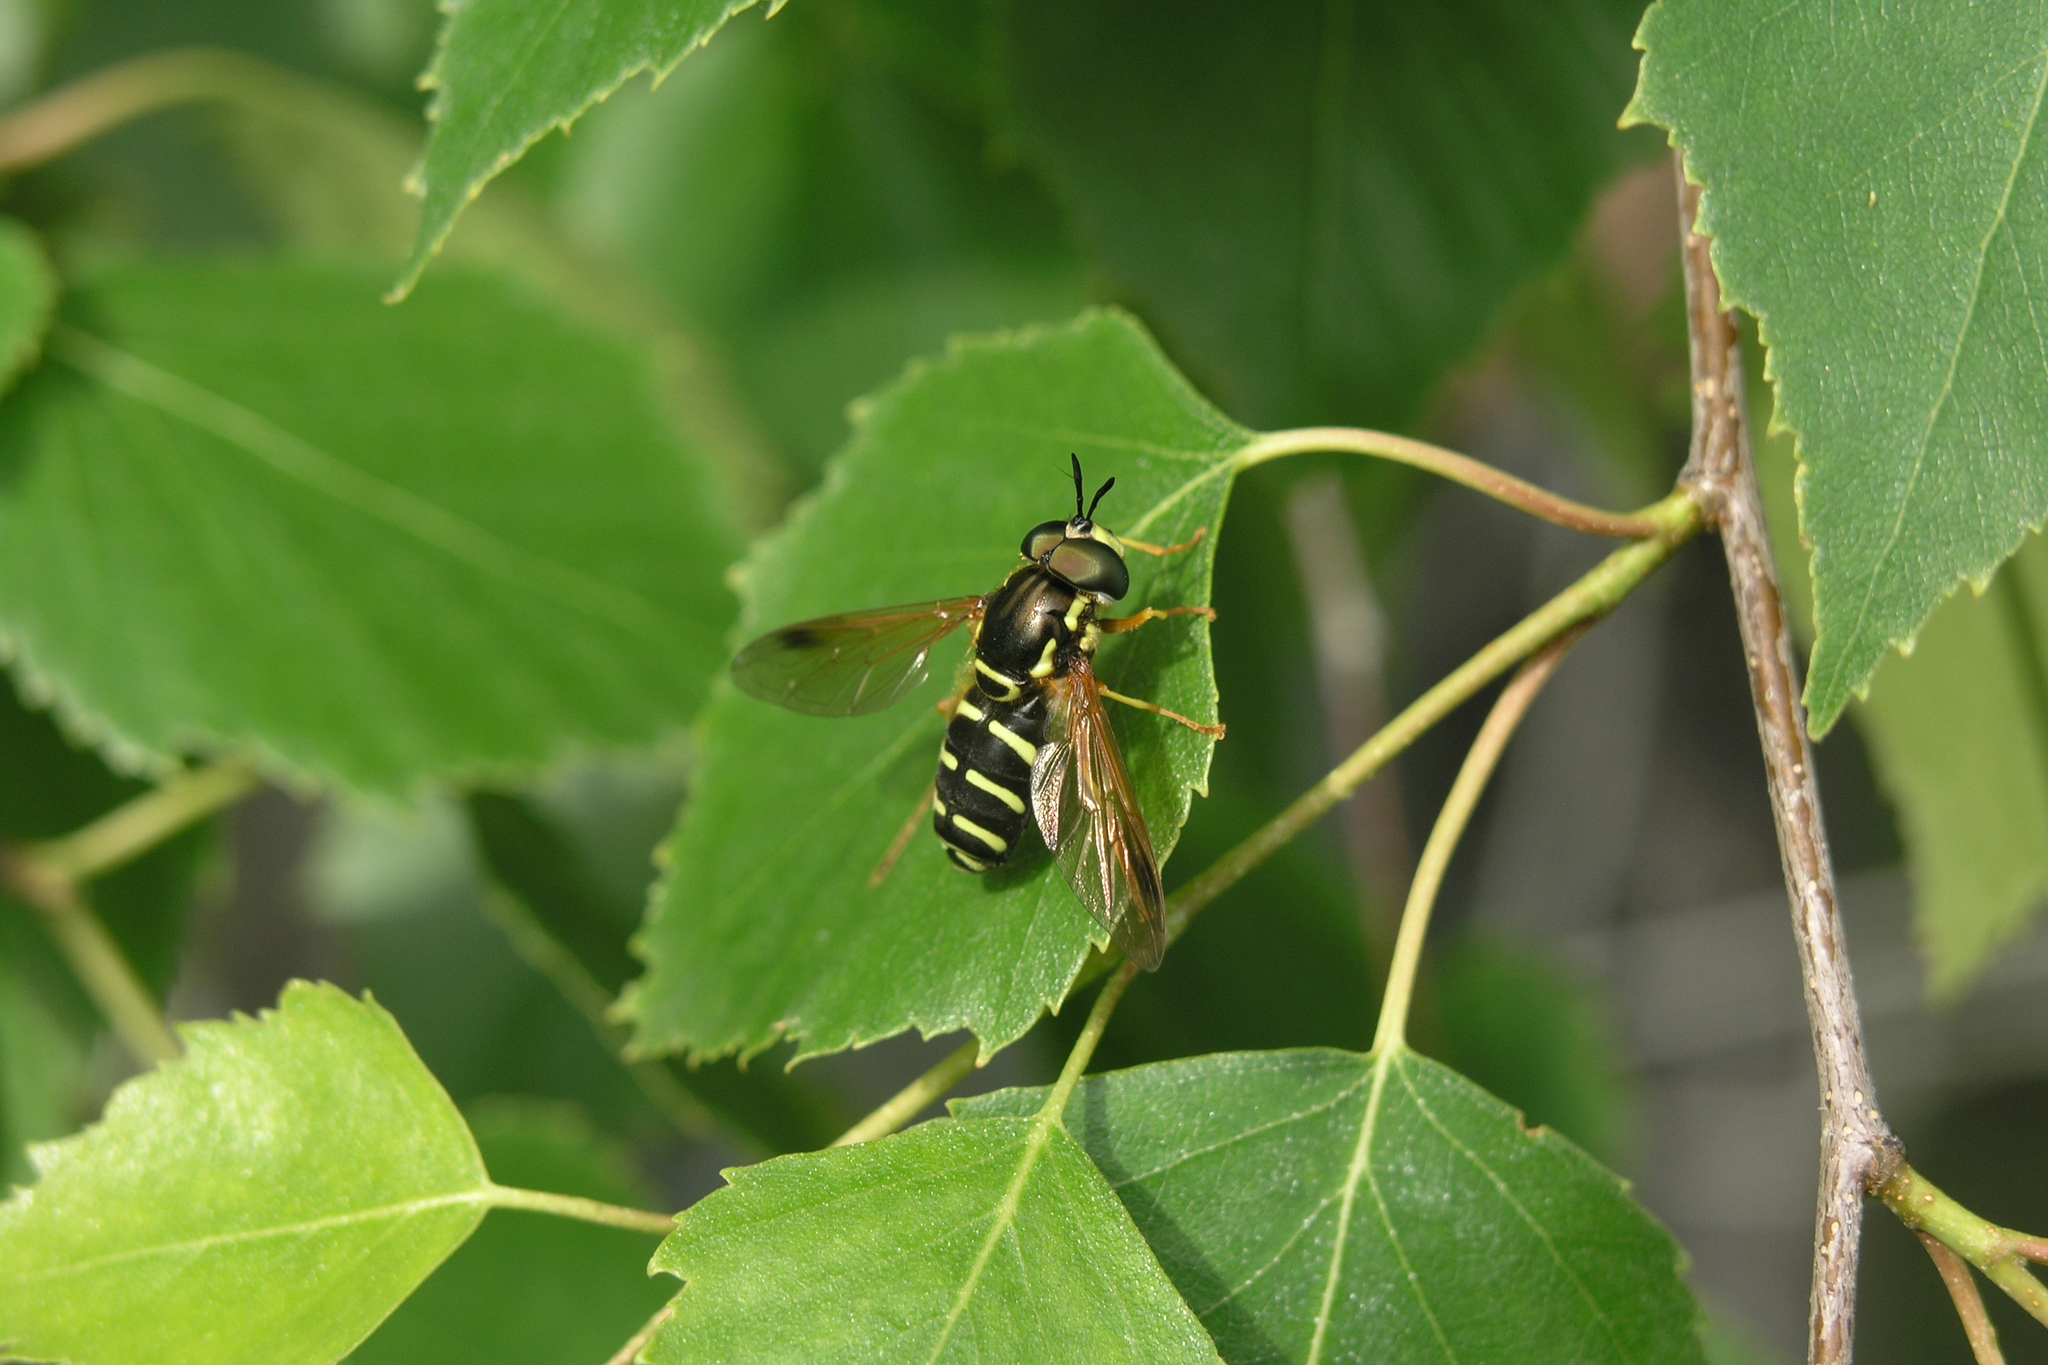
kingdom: Plantae
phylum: Tracheophyta
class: Magnoliopsida
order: Fagales
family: Betulaceae
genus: Betula
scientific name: Betula pendula
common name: Silver birch
